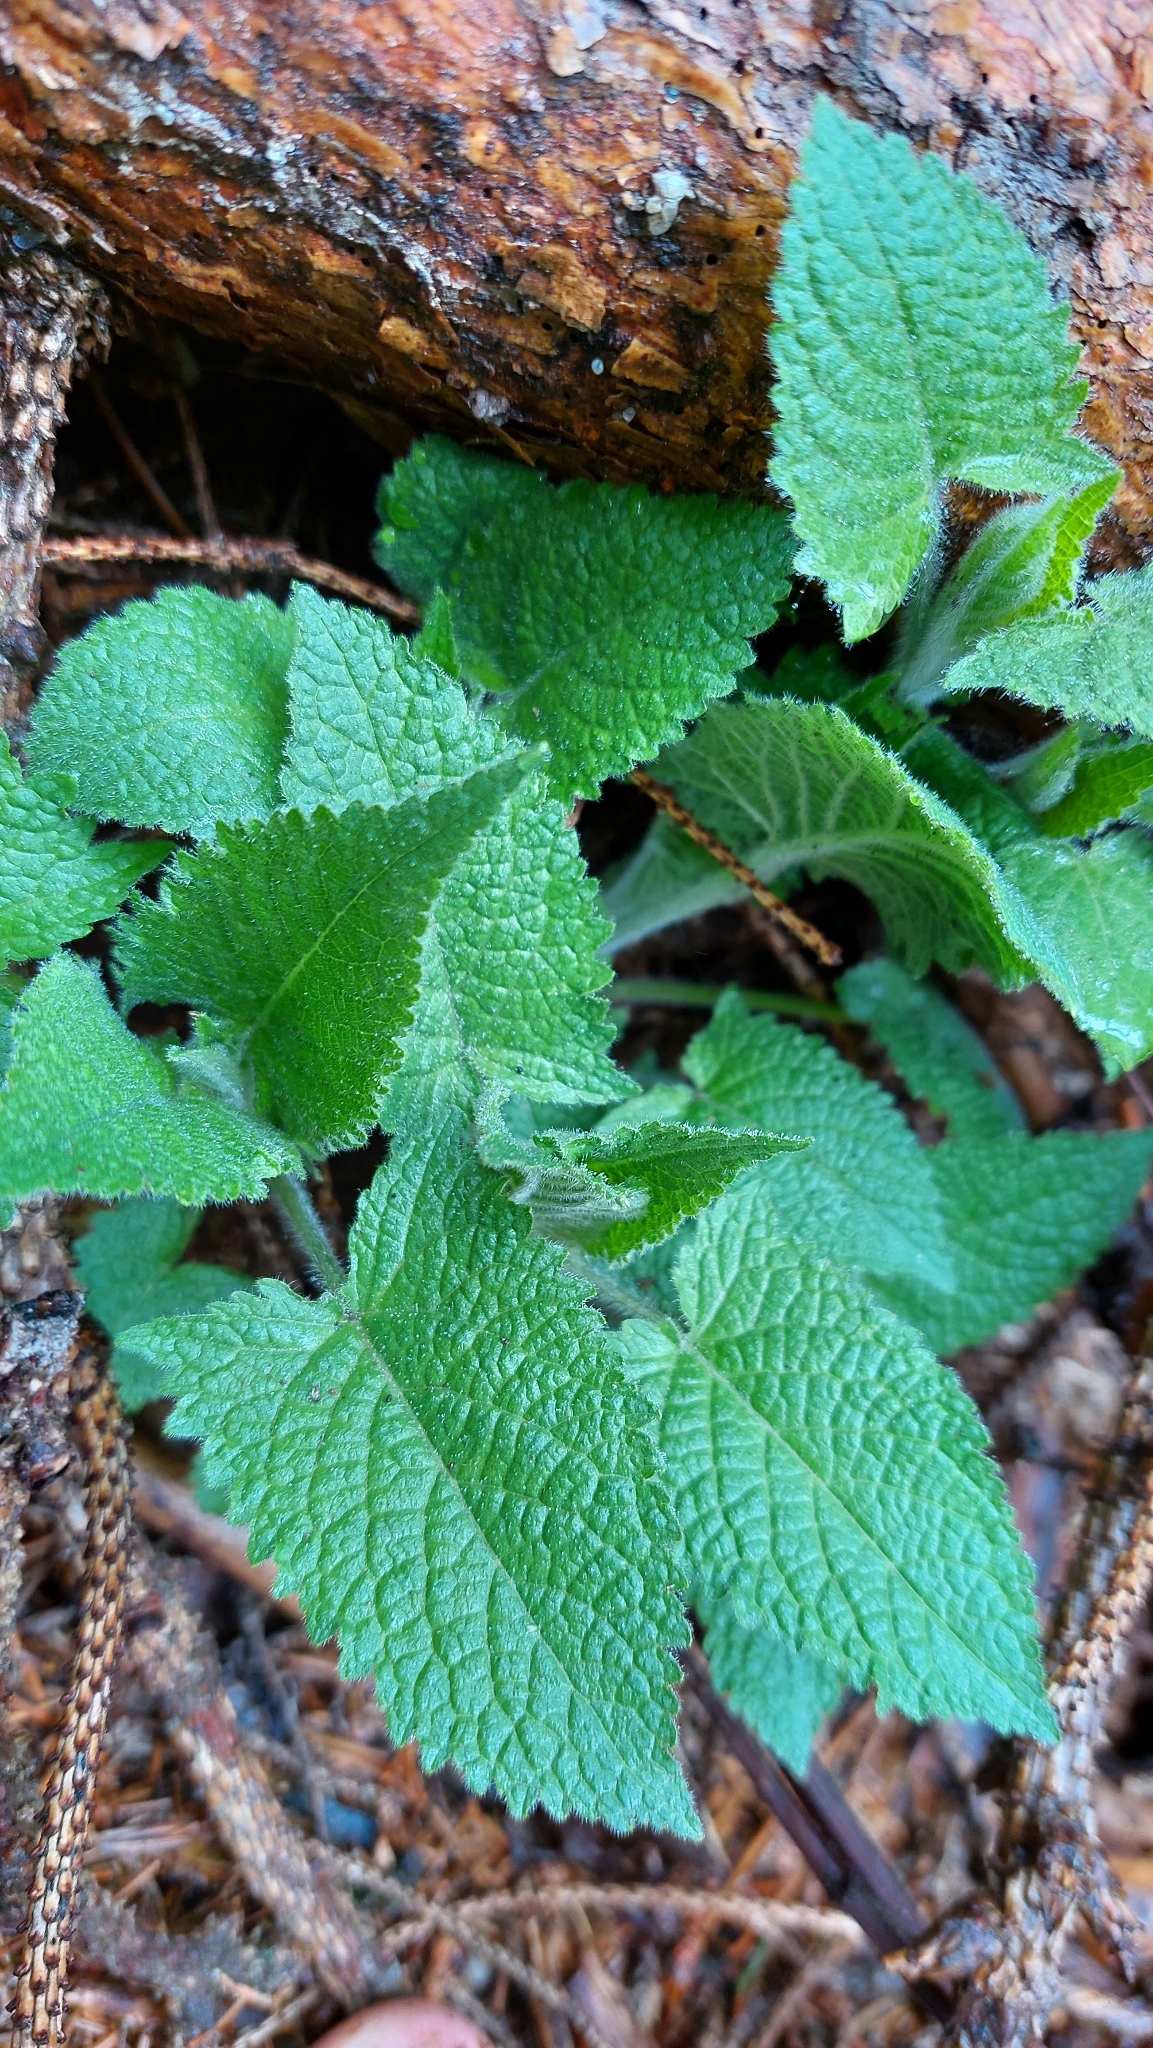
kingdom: Plantae
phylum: Tracheophyta
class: Magnoliopsida
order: Lamiales
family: Lamiaceae
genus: Salvia
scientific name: Salvia glutinosa
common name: Sticky clary
